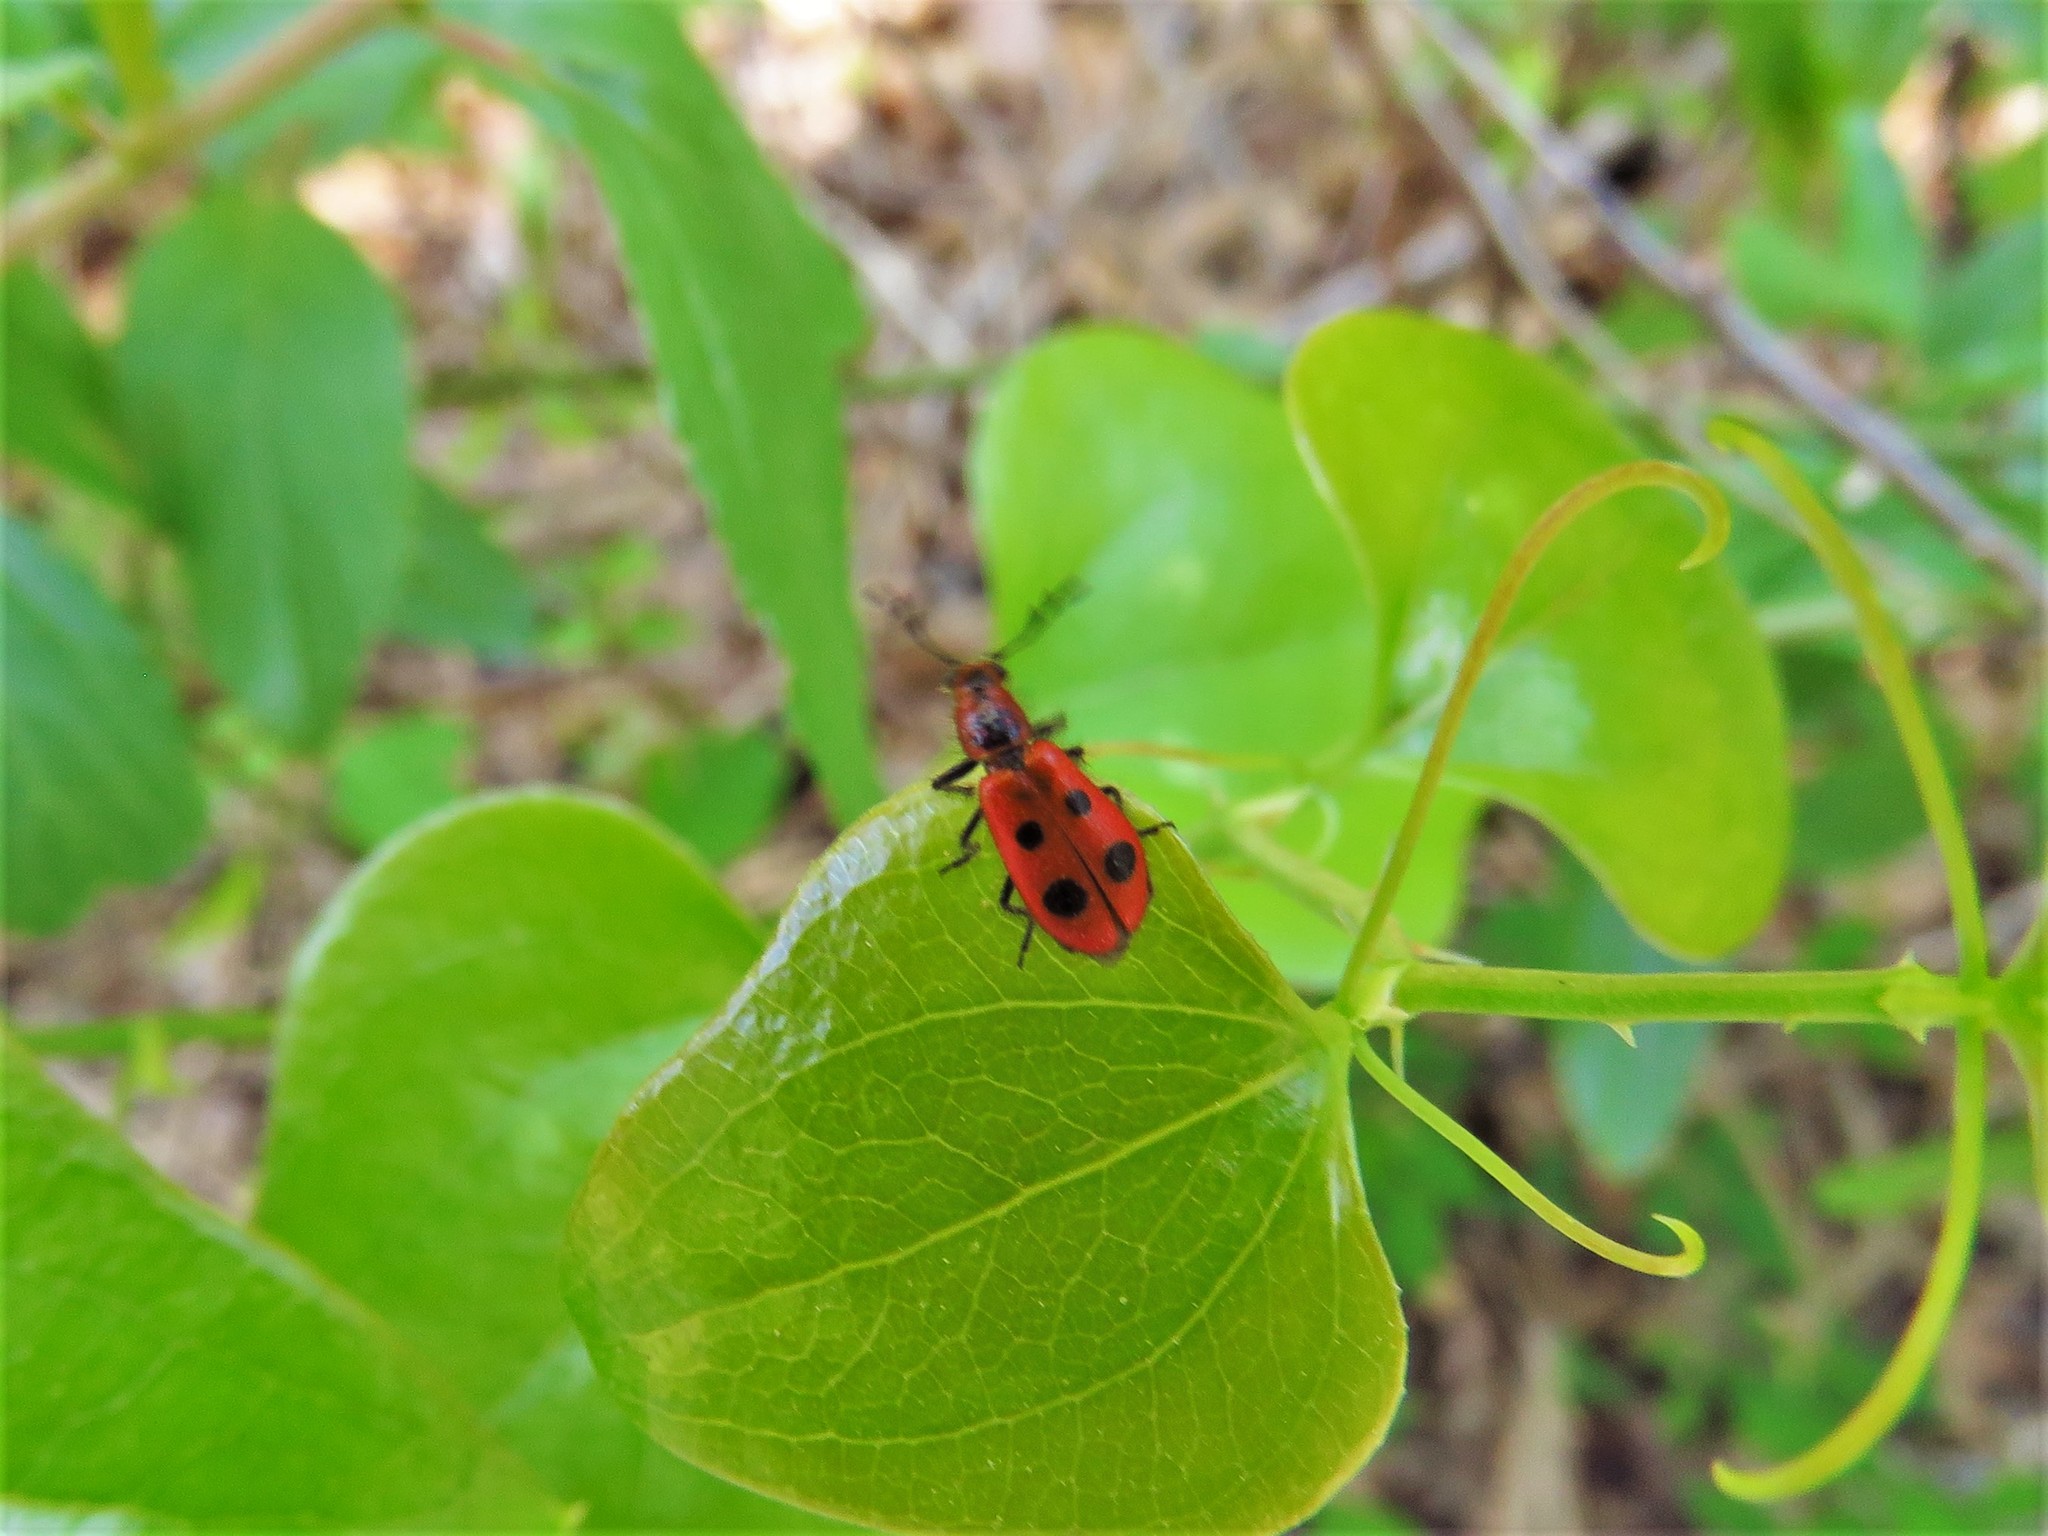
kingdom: Animalia
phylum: Arthropoda
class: Insecta
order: Coleoptera
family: Cleridae
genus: Pelonides
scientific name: Pelonides
